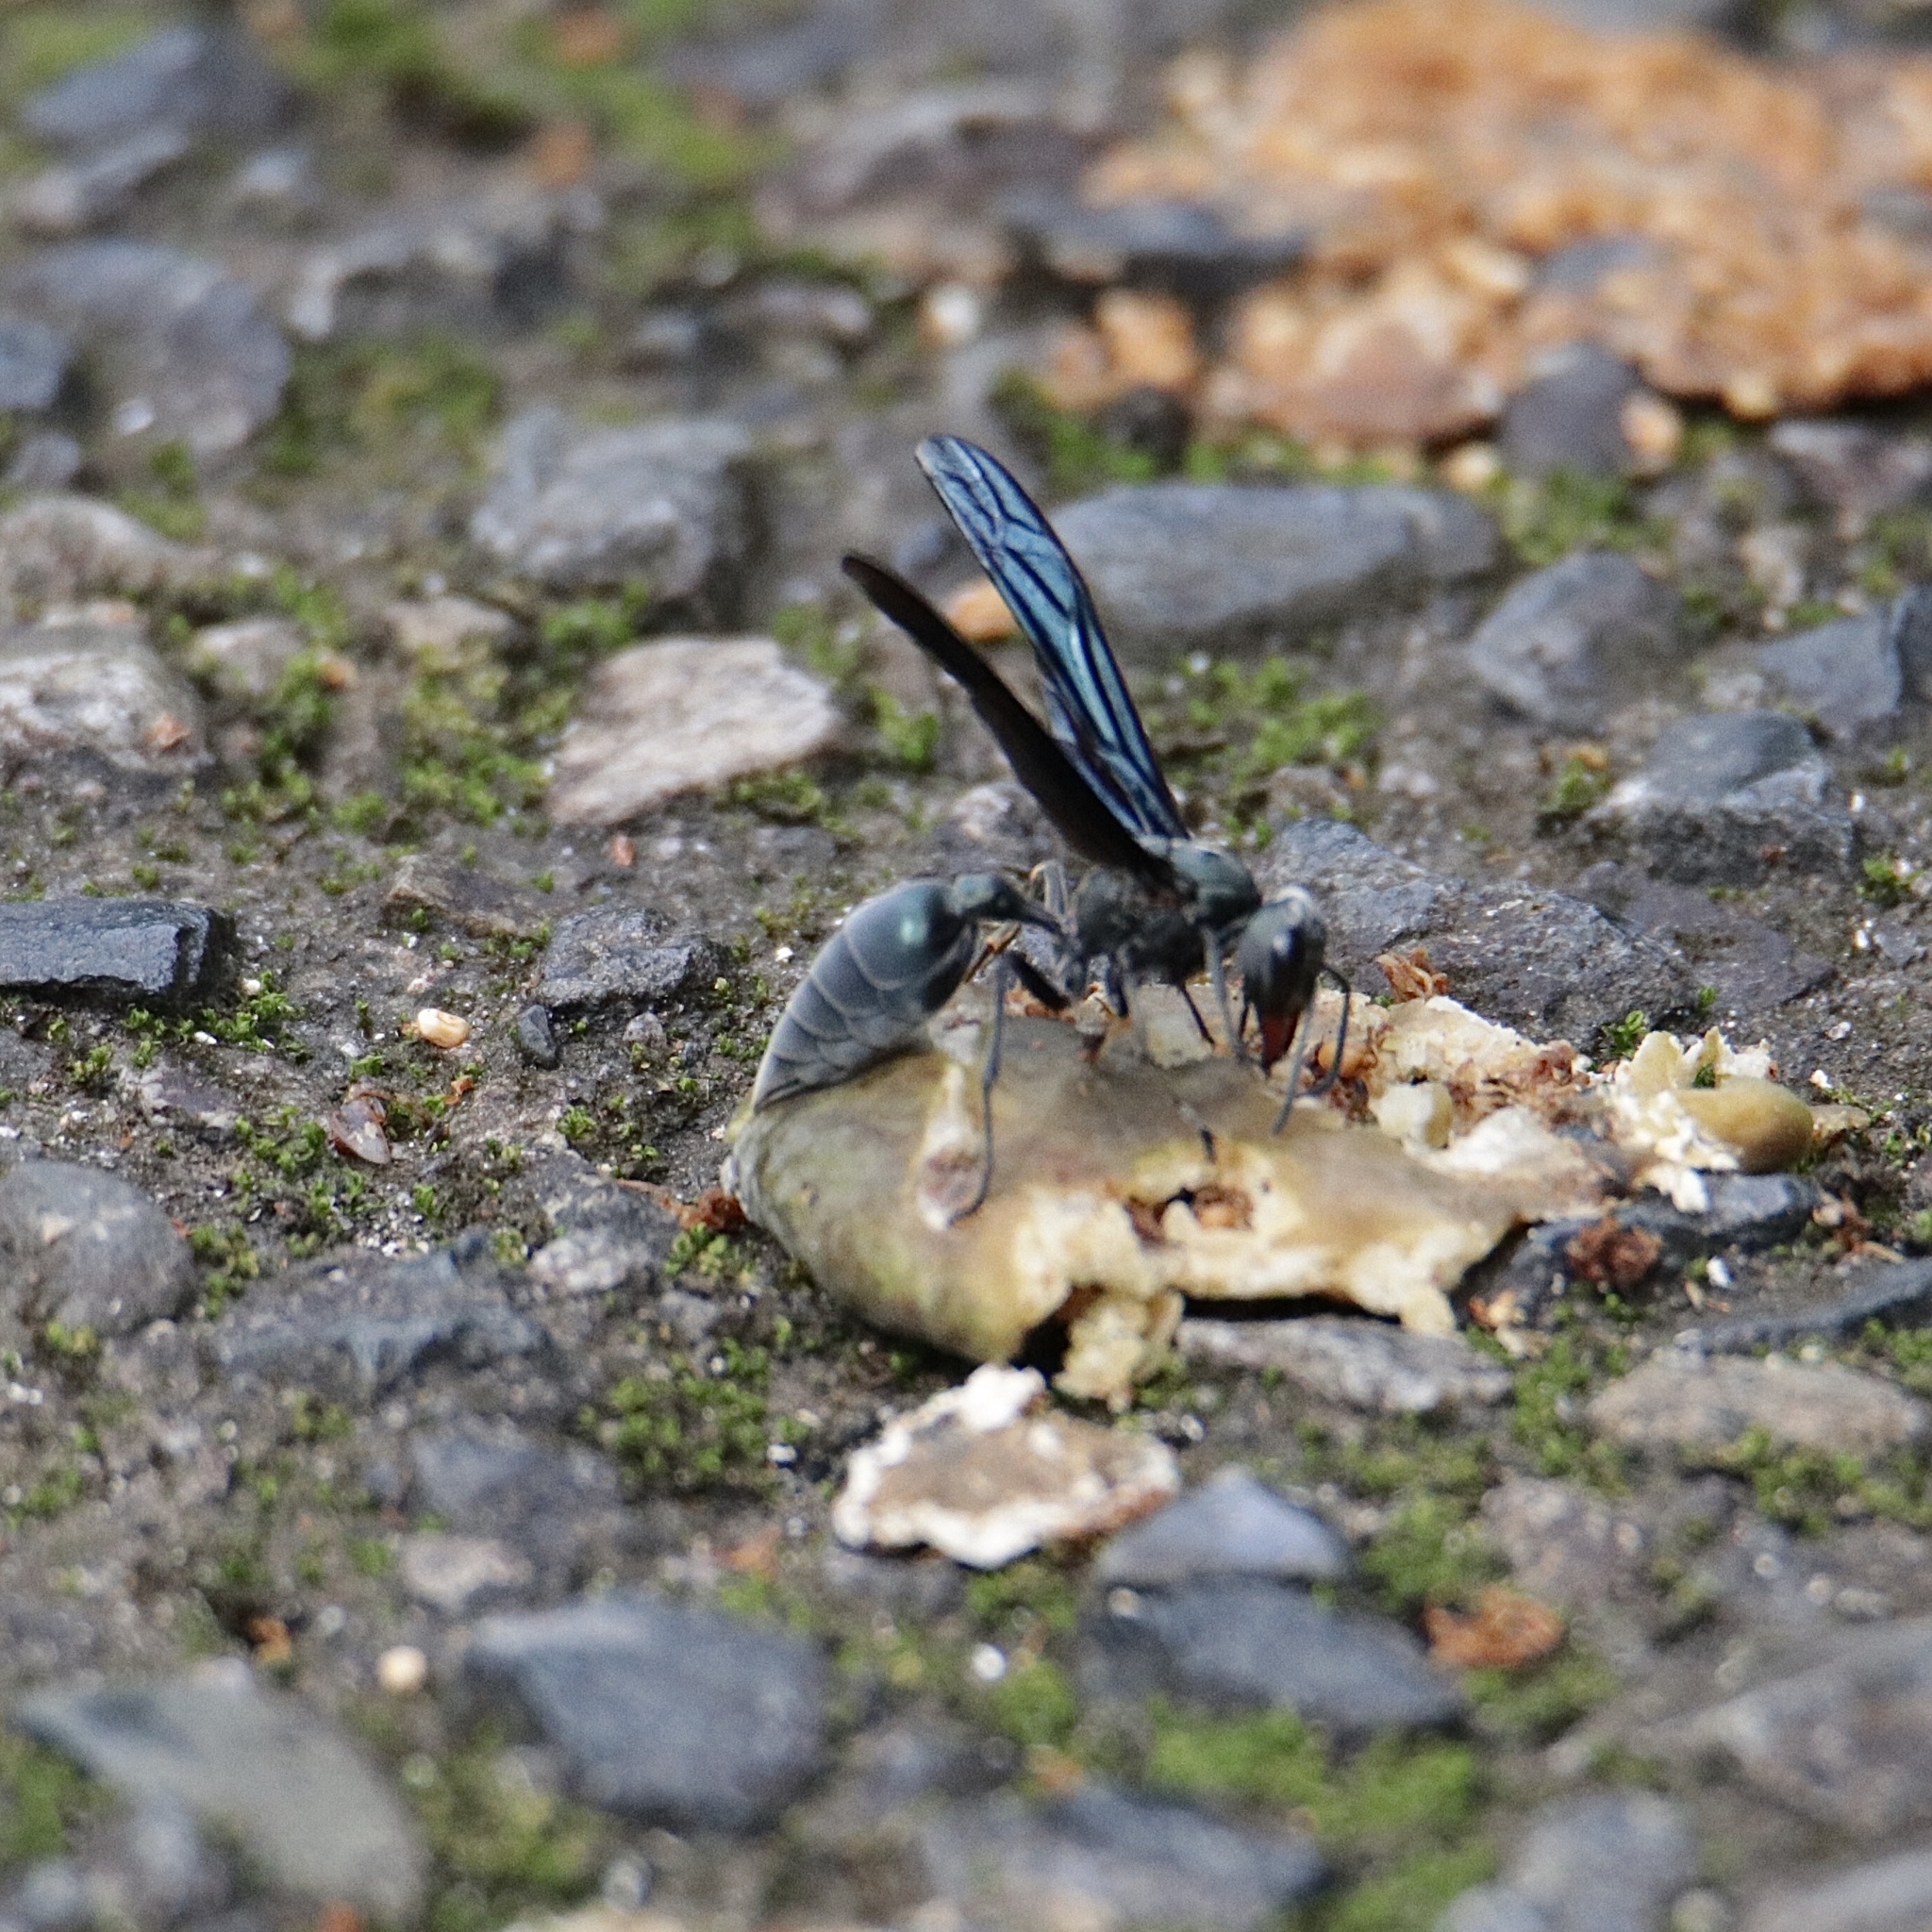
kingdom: Animalia
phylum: Arthropoda
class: Insecta
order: Hymenoptera
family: Vespidae
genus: Synoeca
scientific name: Synoeca septentrionalis
